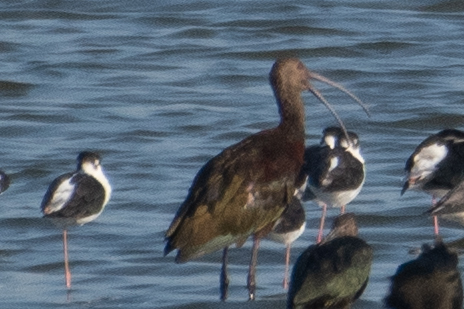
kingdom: Animalia
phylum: Chordata
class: Aves
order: Pelecaniformes
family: Threskiornithidae
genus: Plegadis
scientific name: Plegadis chihi
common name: White-faced ibis
